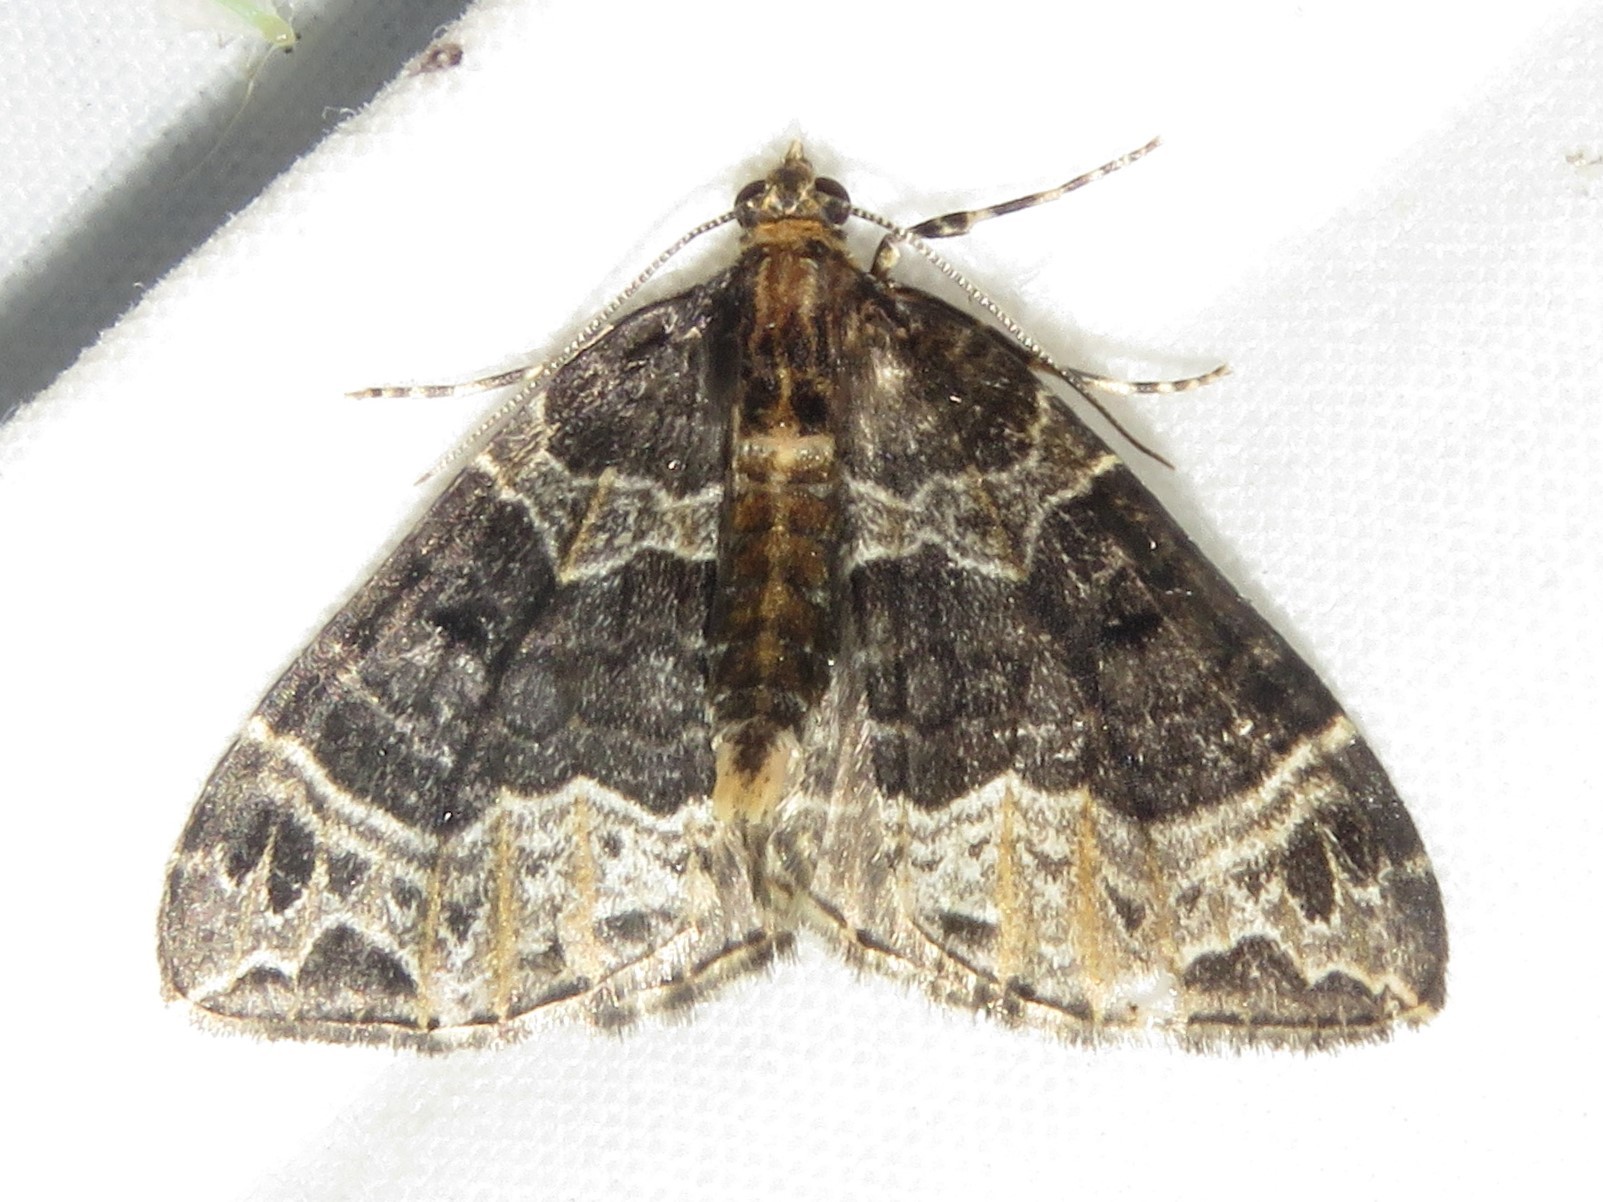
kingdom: Animalia
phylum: Arthropoda
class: Insecta
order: Lepidoptera
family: Geometridae
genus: Ecliptopera
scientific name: Ecliptopera silaceata
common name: Small phoenix
